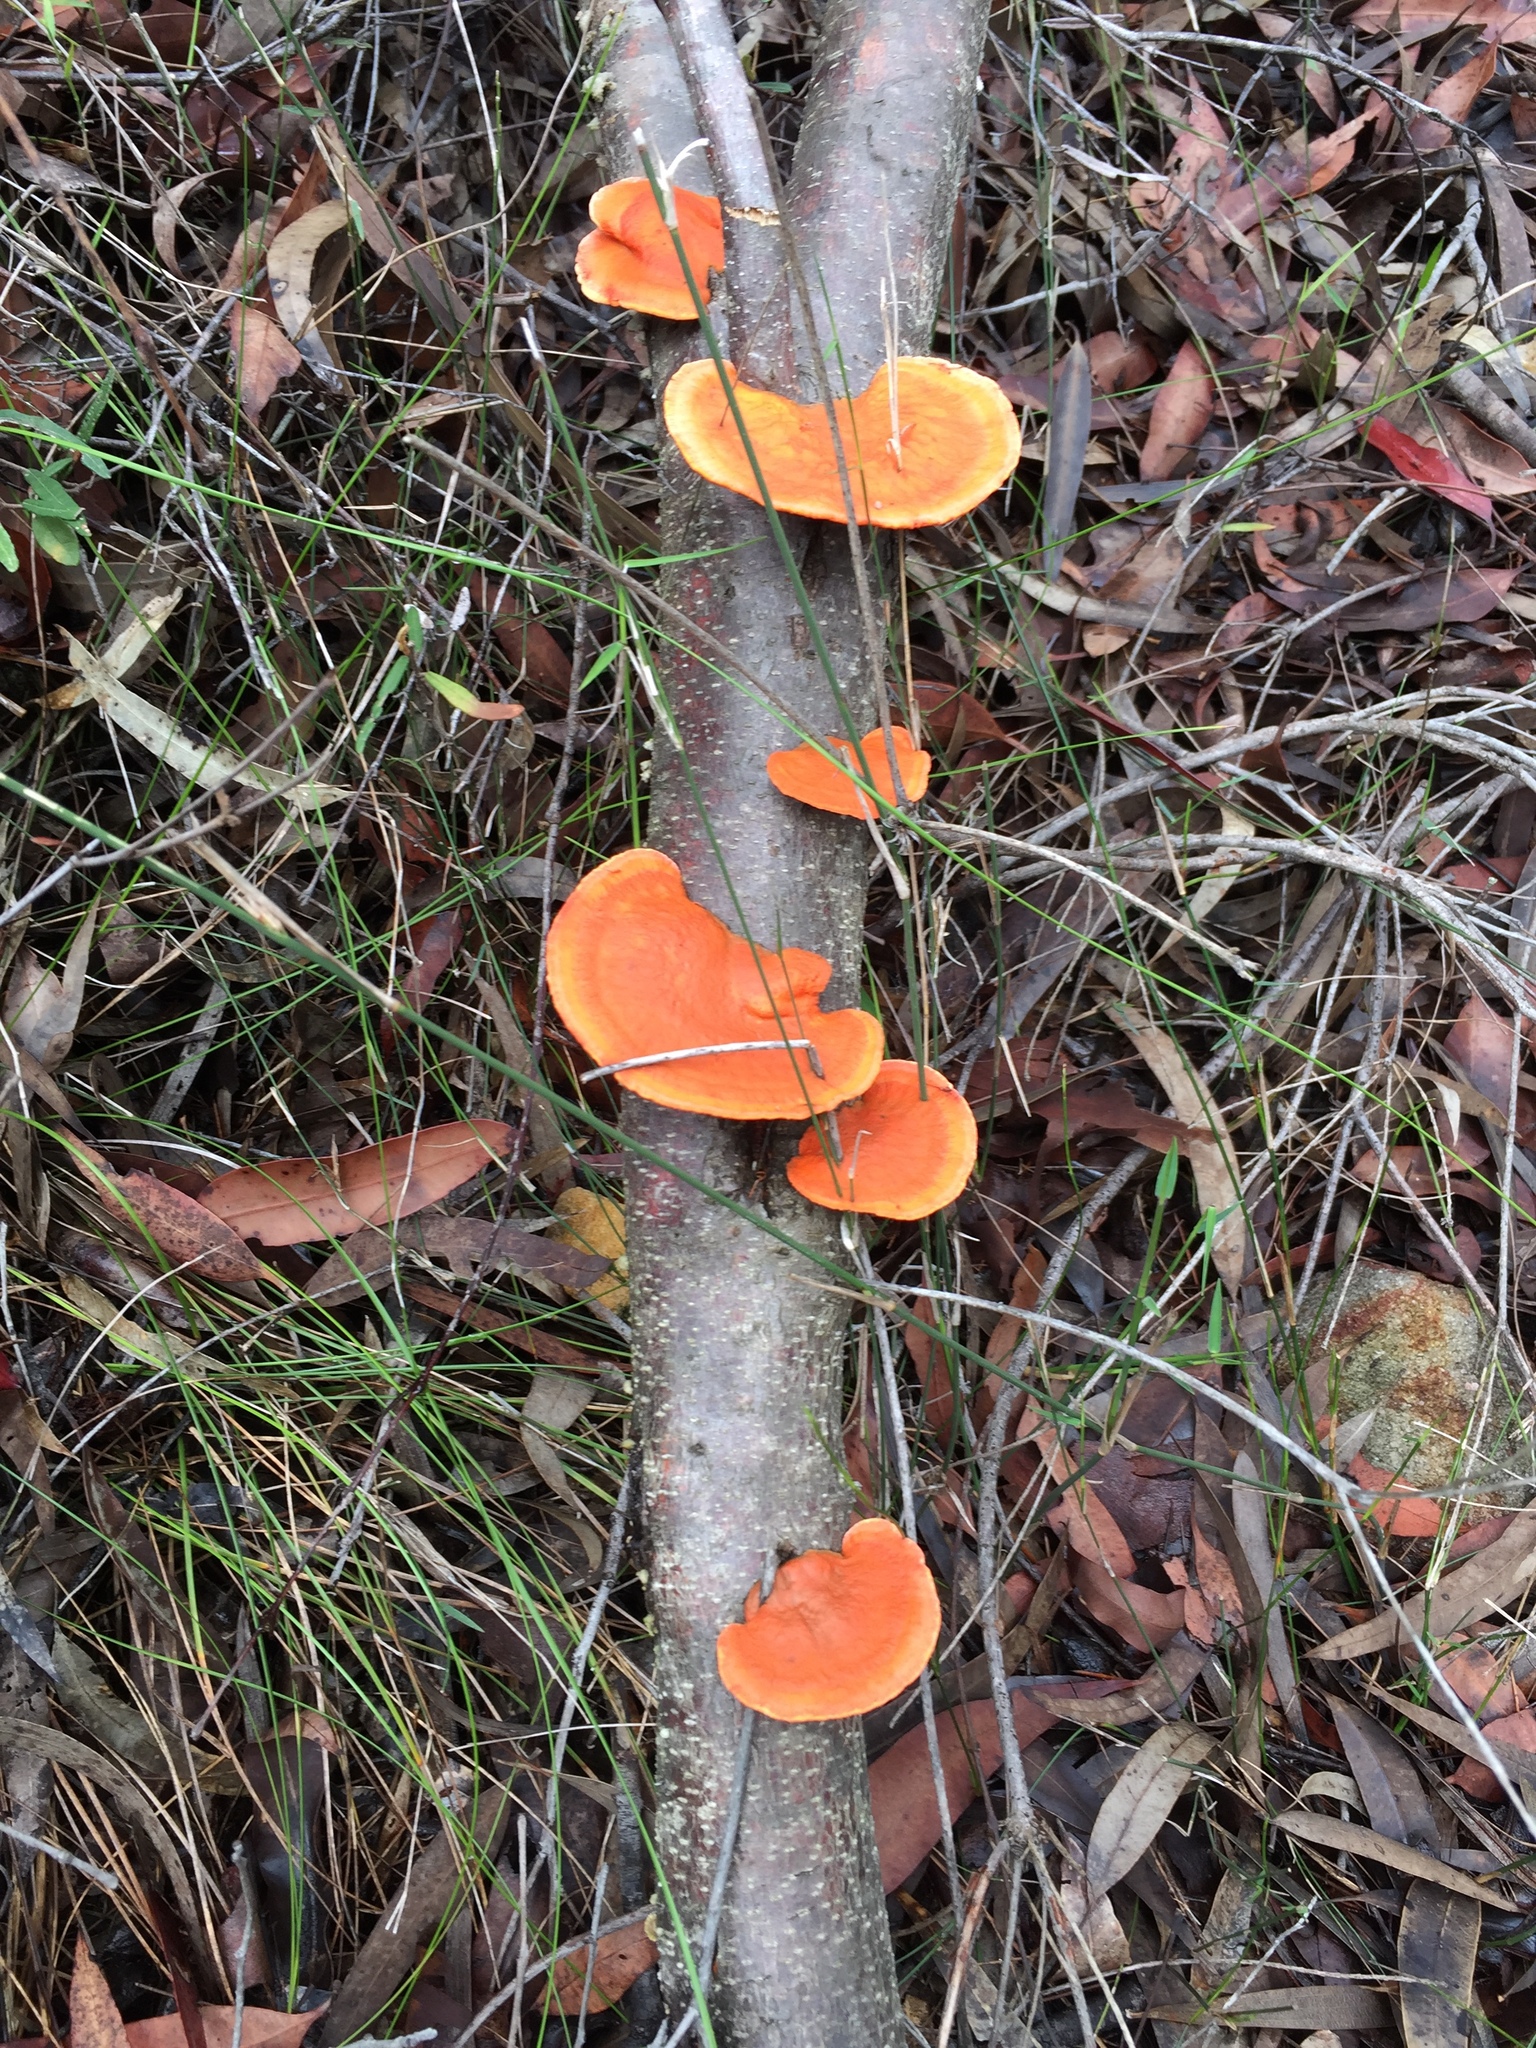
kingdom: Fungi
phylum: Basidiomycota
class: Agaricomycetes
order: Polyporales
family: Polyporaceae
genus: Trametes
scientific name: Trametes coccinea
